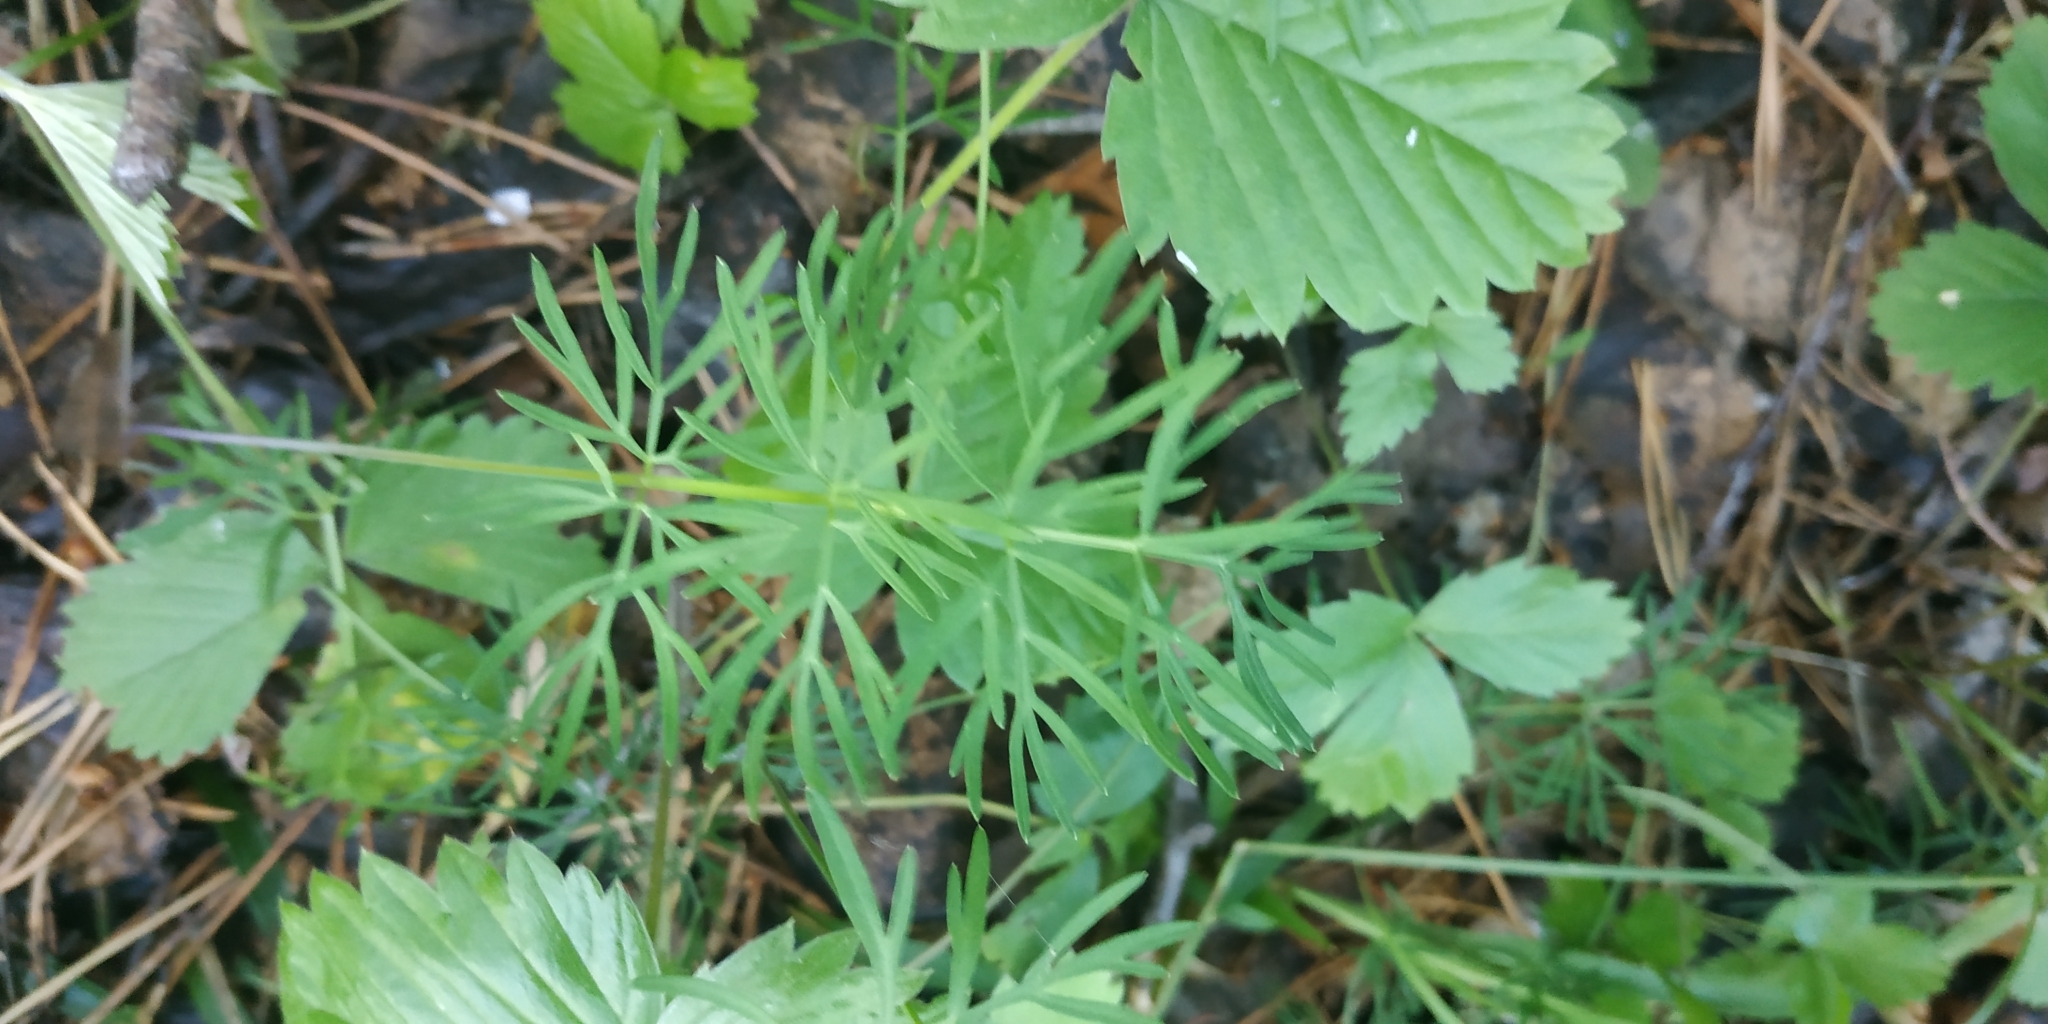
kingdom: Plantae
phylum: Tracheophyta
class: Magnoliopsida
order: Apiales
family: Apiaceae
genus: Kadenia
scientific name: Kadenia dubia
